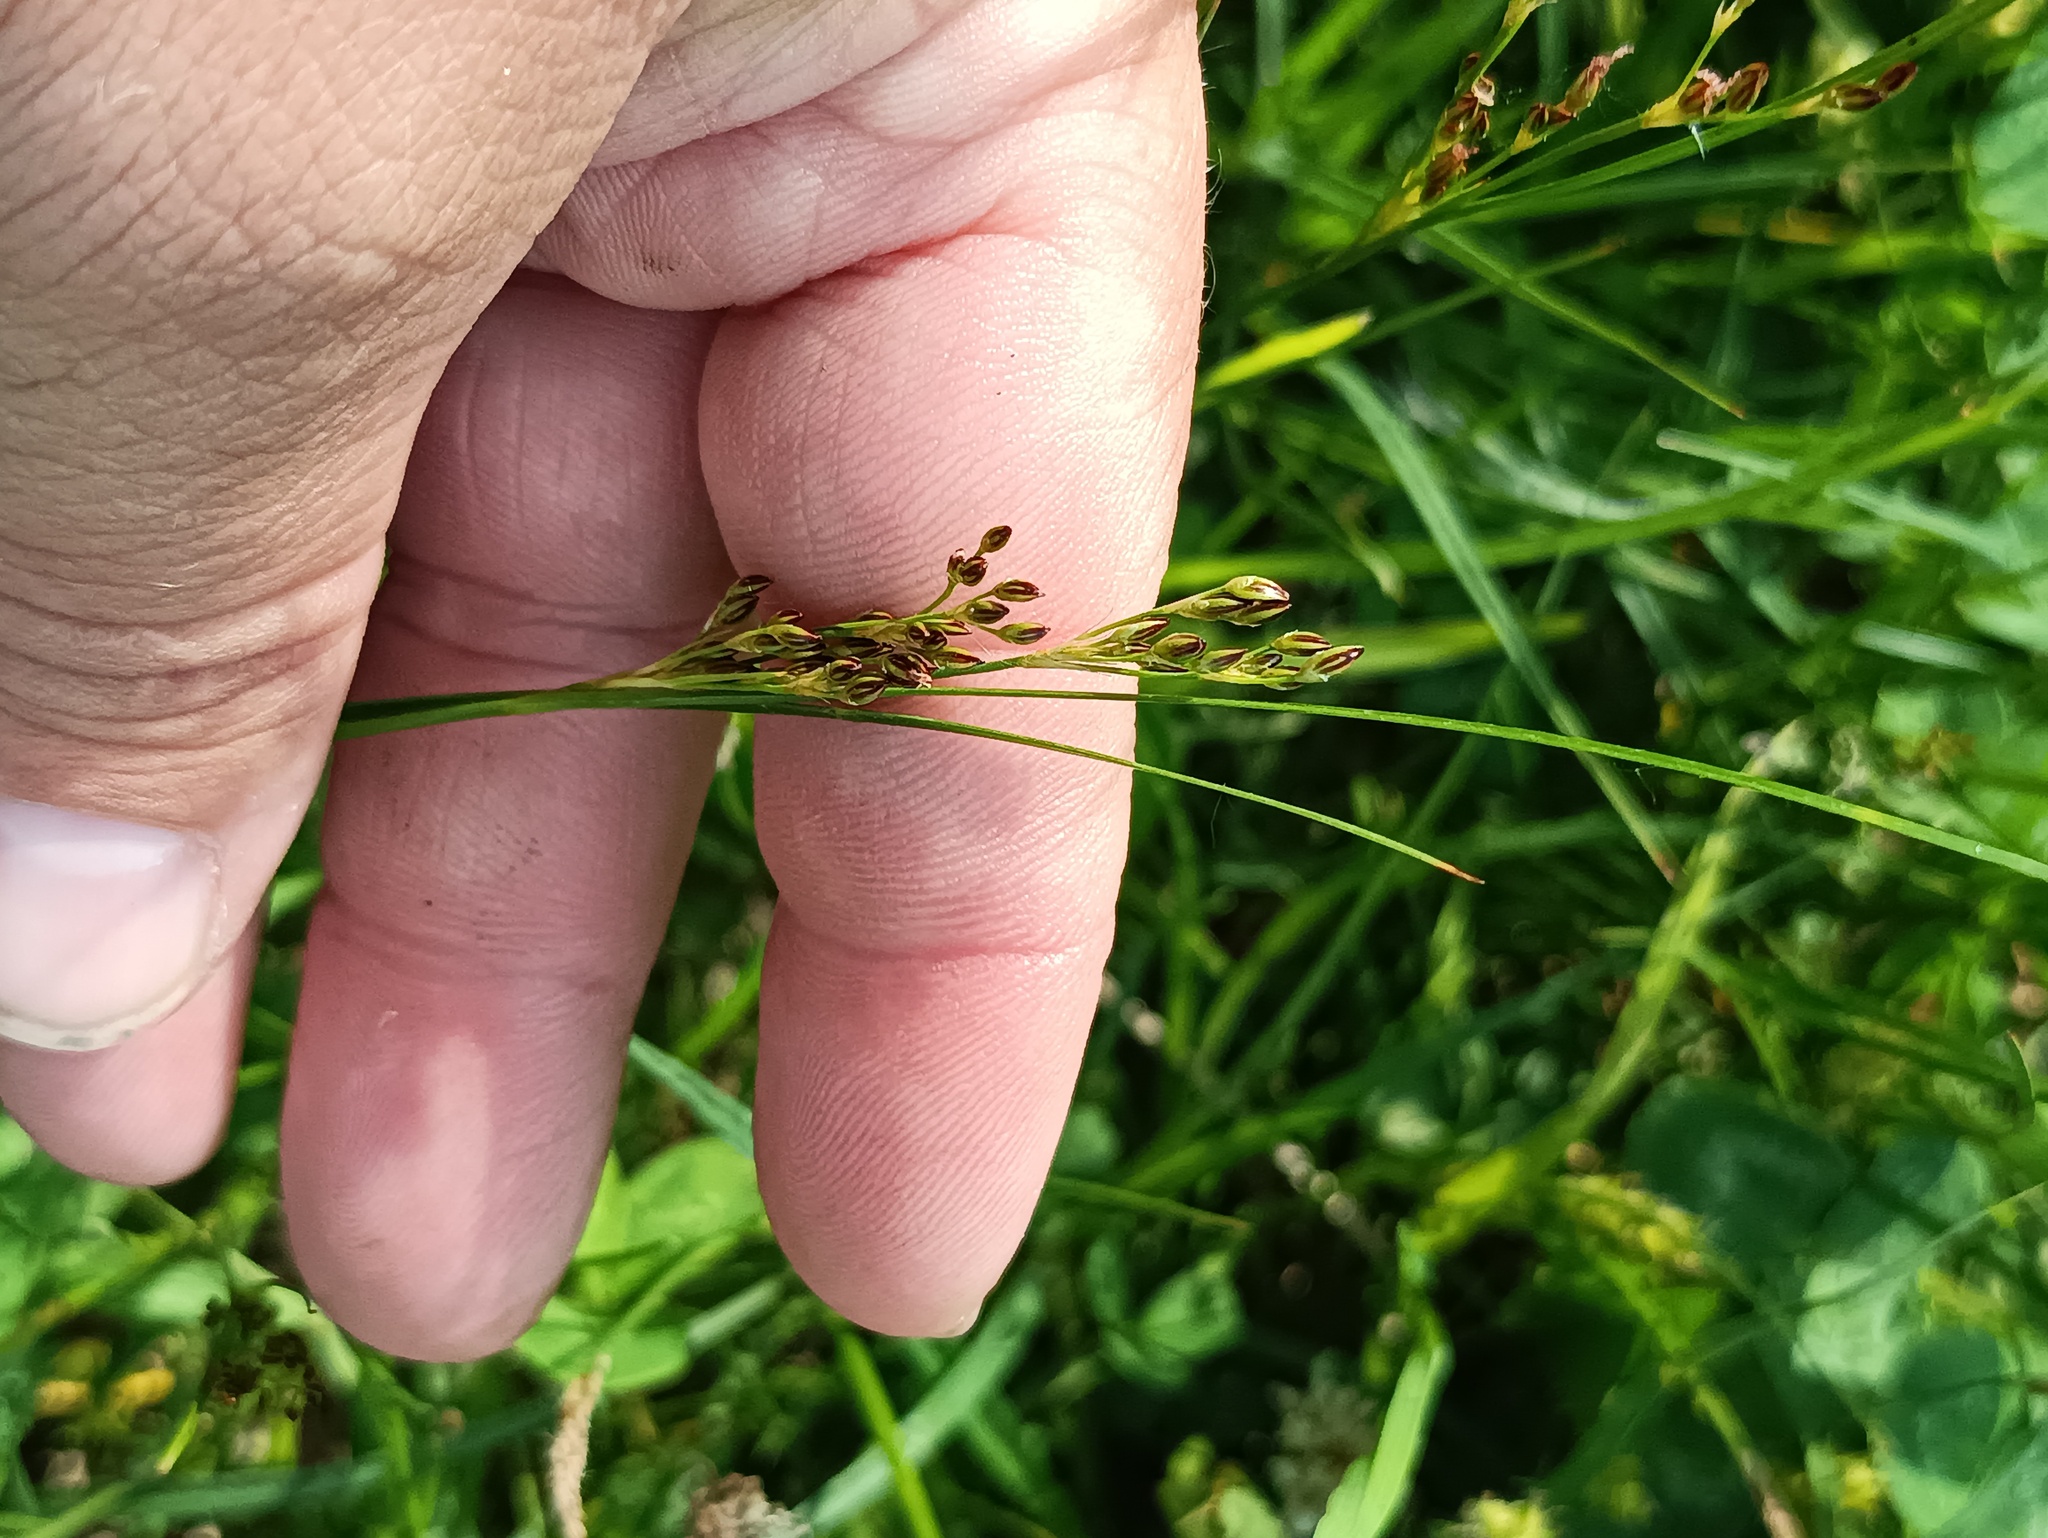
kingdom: Plantae
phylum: Tracheophyta
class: Liliopsida
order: Poales
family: Juncaceae
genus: Juncus
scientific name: Juncus compressus
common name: Round-fruited rush
